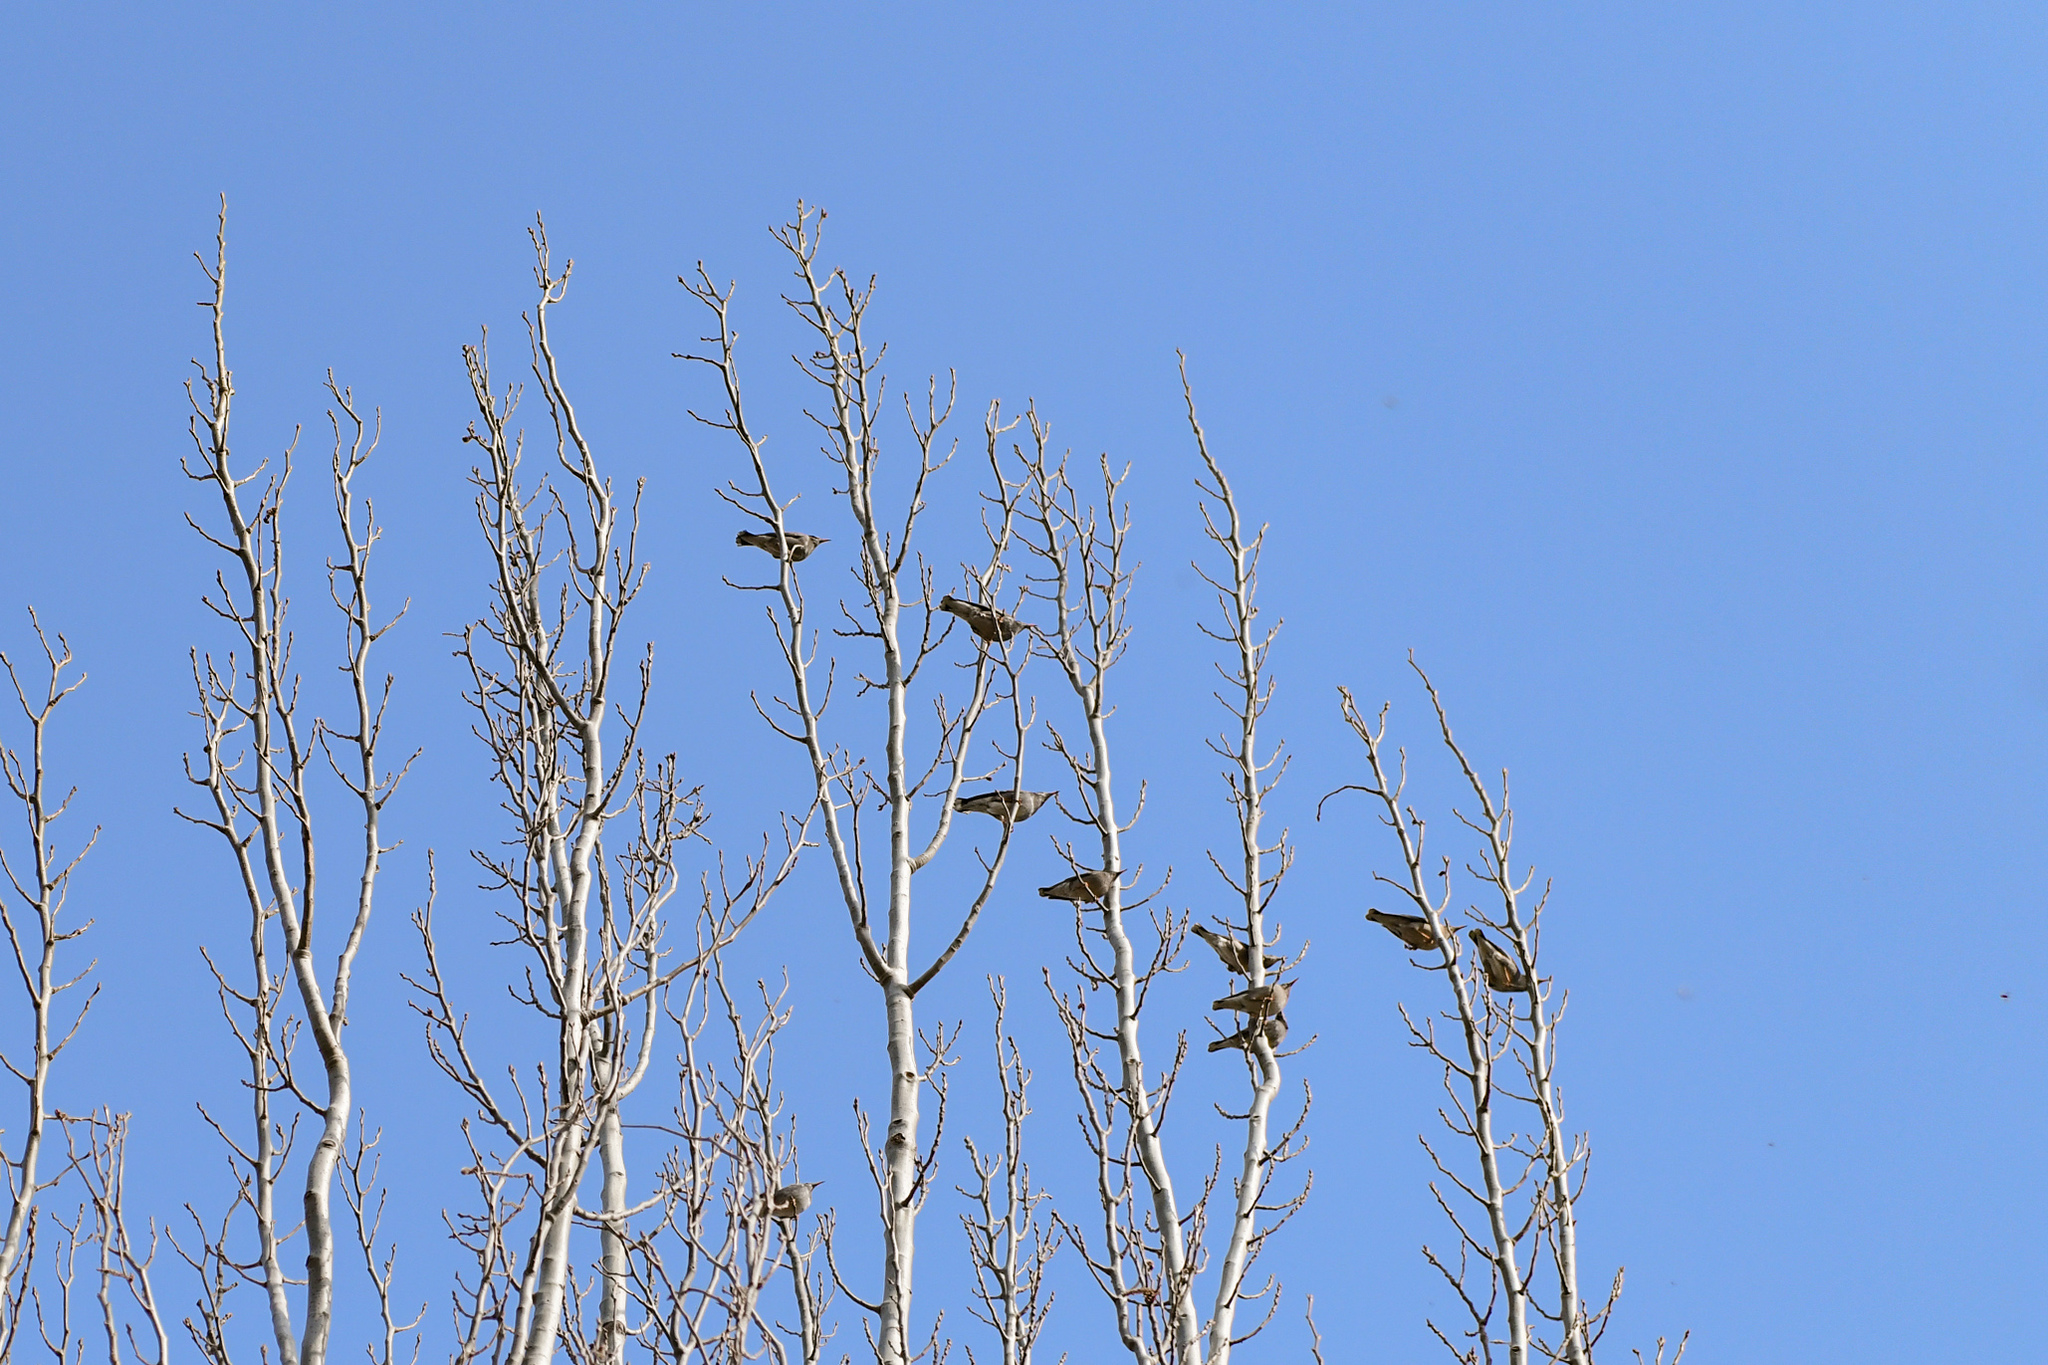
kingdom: Animalia
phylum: Chordata
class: Aves
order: Passeriformes
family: Sturnidae
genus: Spodiopsar
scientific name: Spodiopsar sericeus
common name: Red-billed starling
